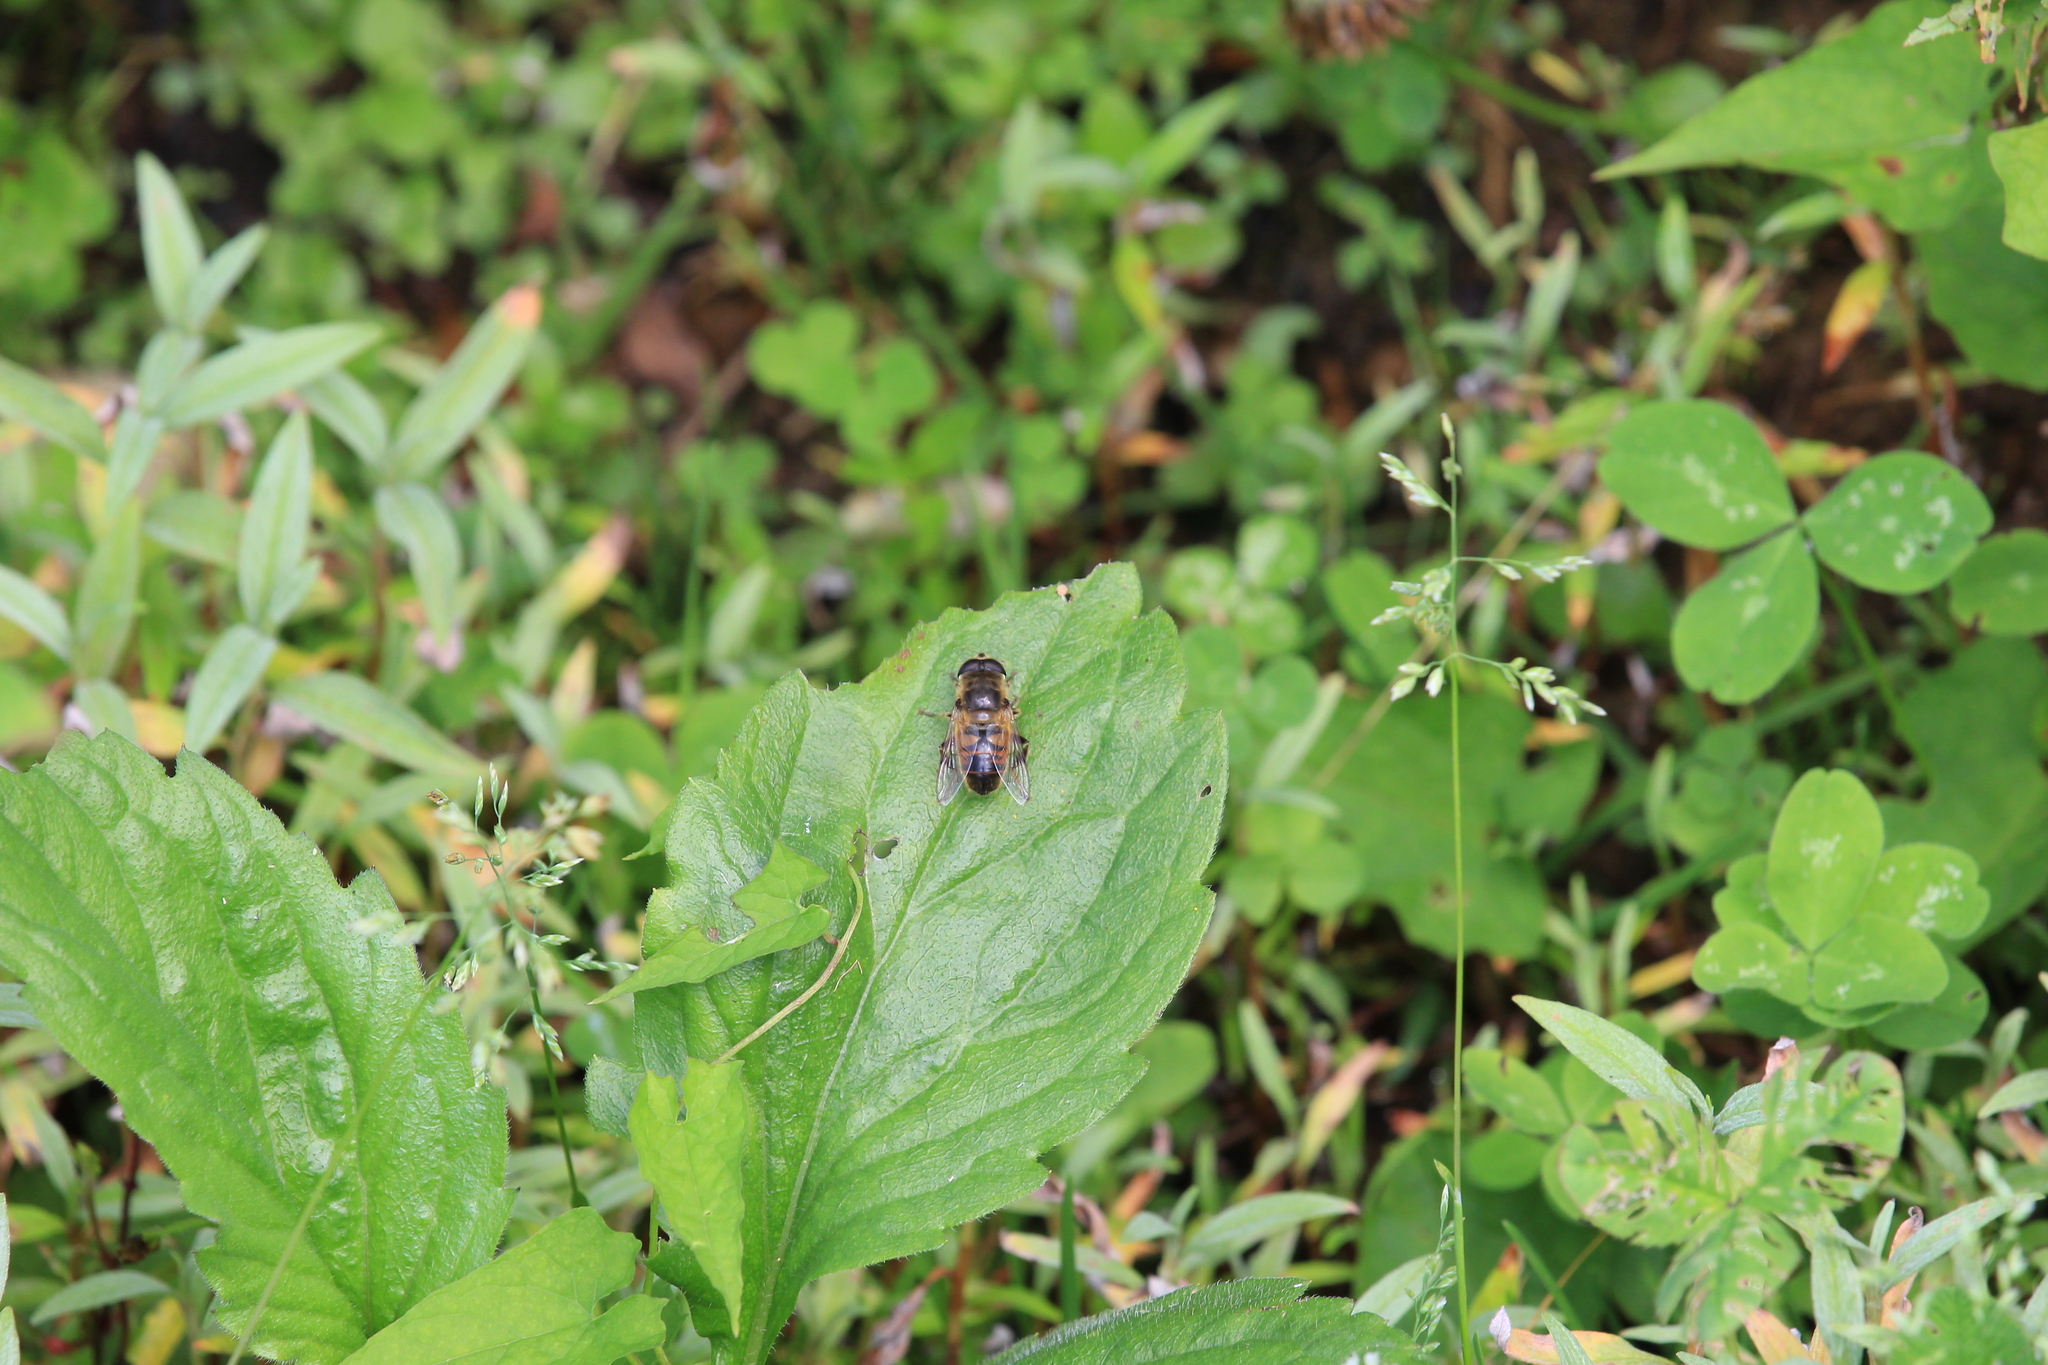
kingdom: Animalia
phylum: Arthropoda
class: Insecta
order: Diptera
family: Syrphidae
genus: Eristalis
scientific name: Eristalis tenax
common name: Drone fly
